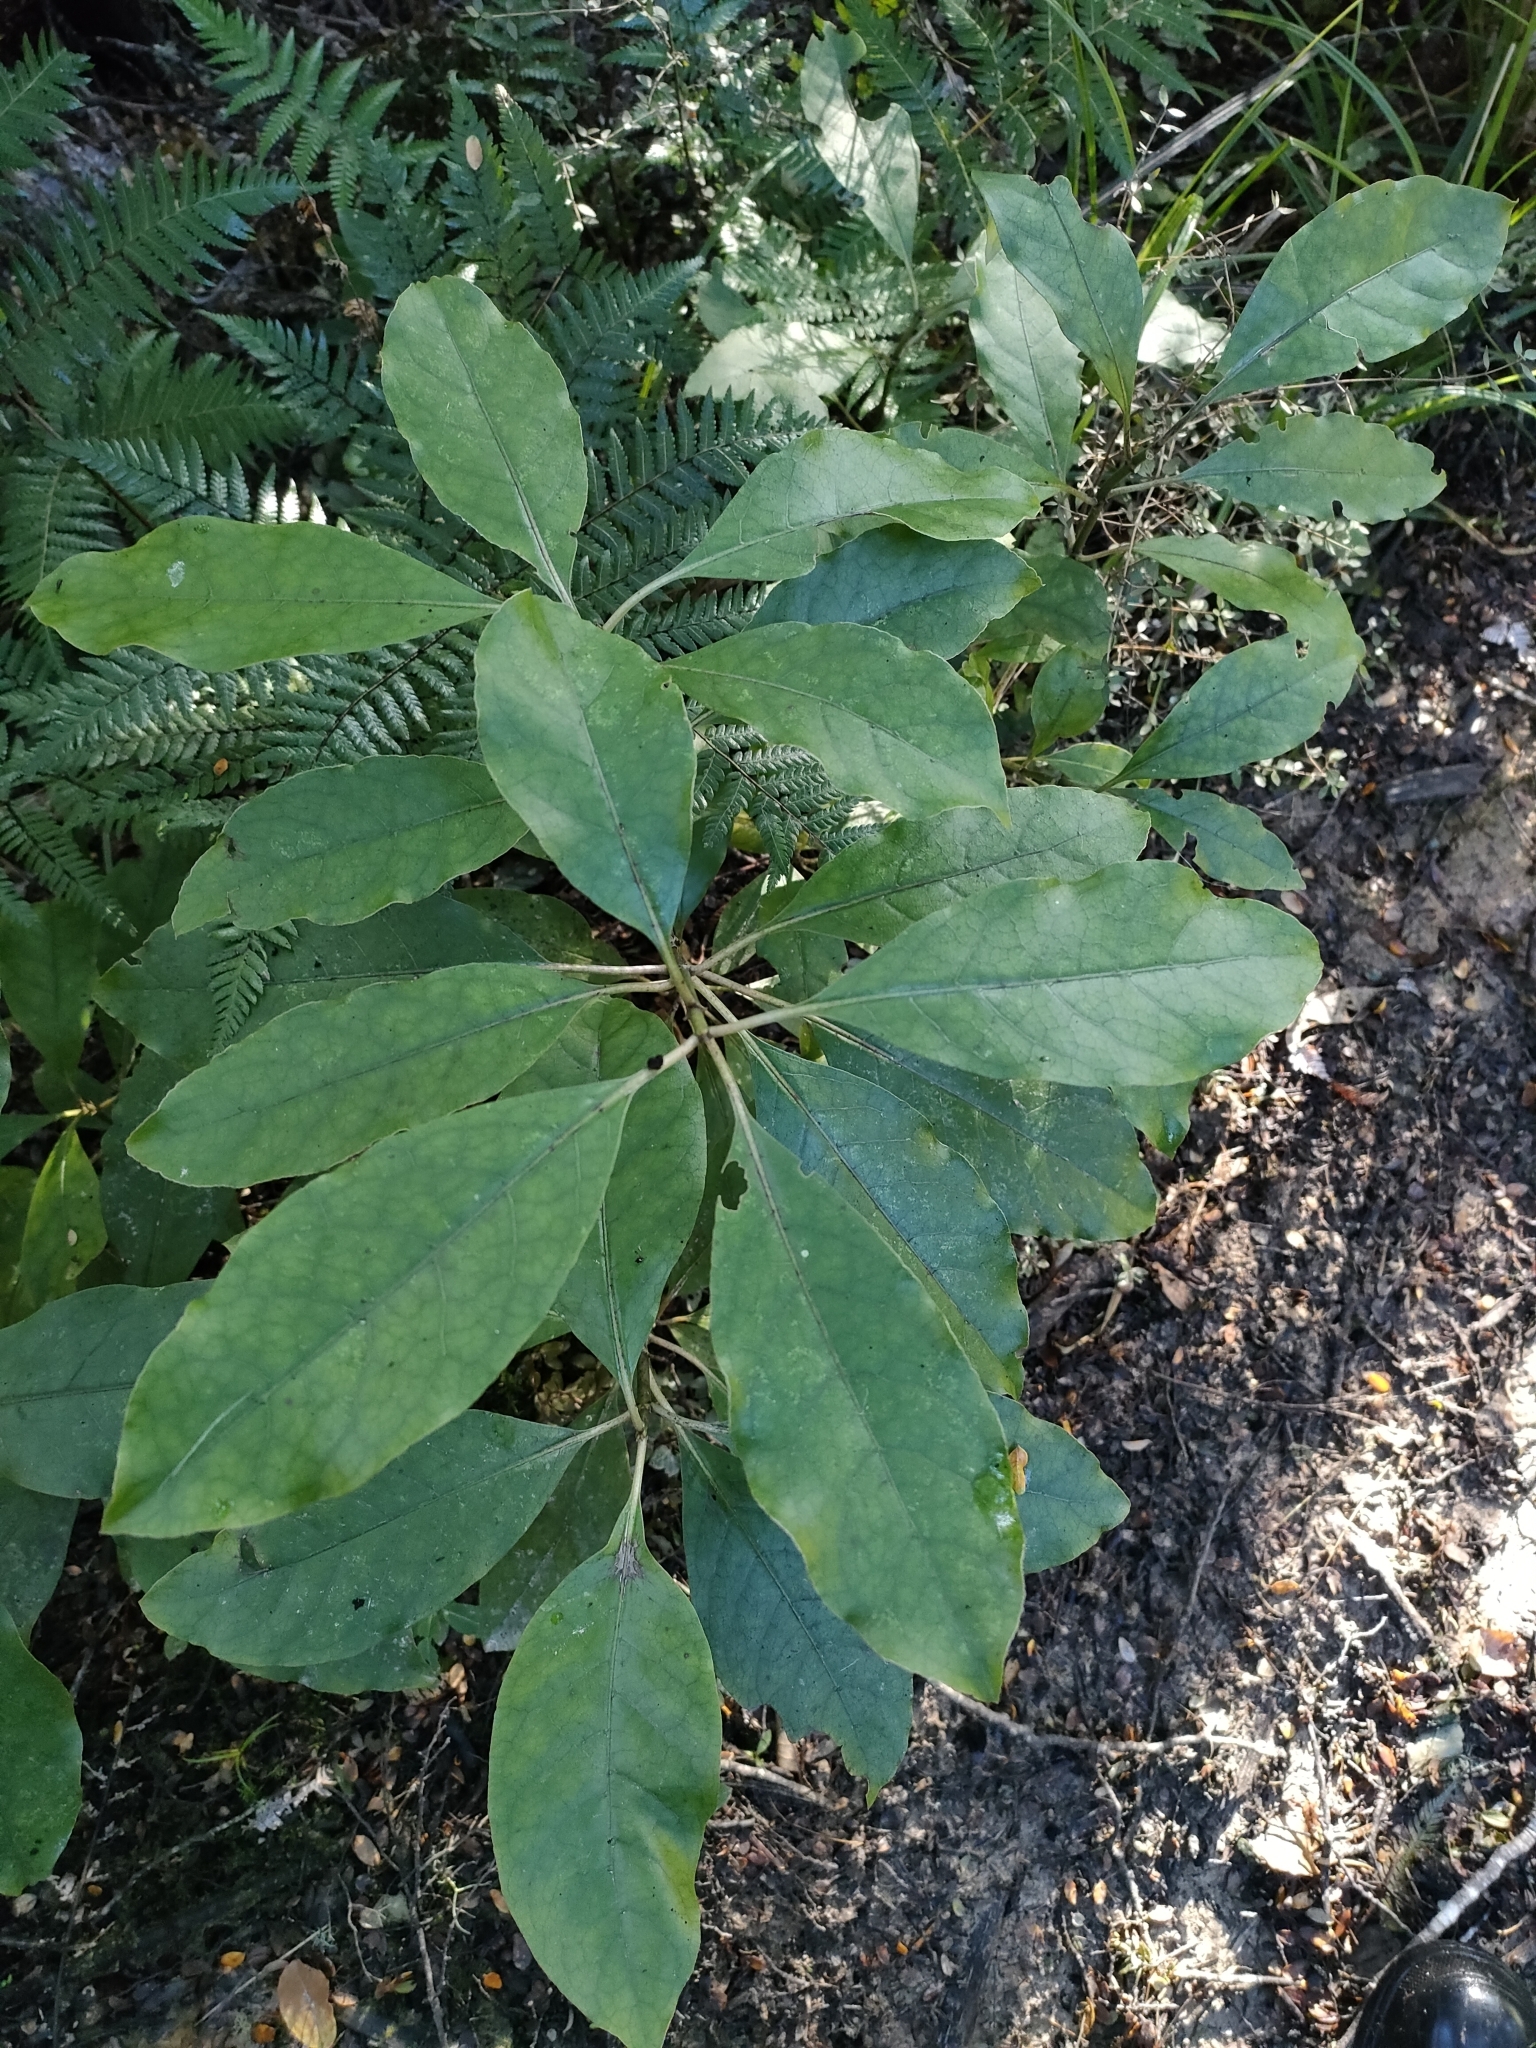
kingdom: Plantae
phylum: Tracheophyta
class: Magnoliopsida
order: Gentianales
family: Rubiaceae
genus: Coprosma
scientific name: Coprosma autumnalis
